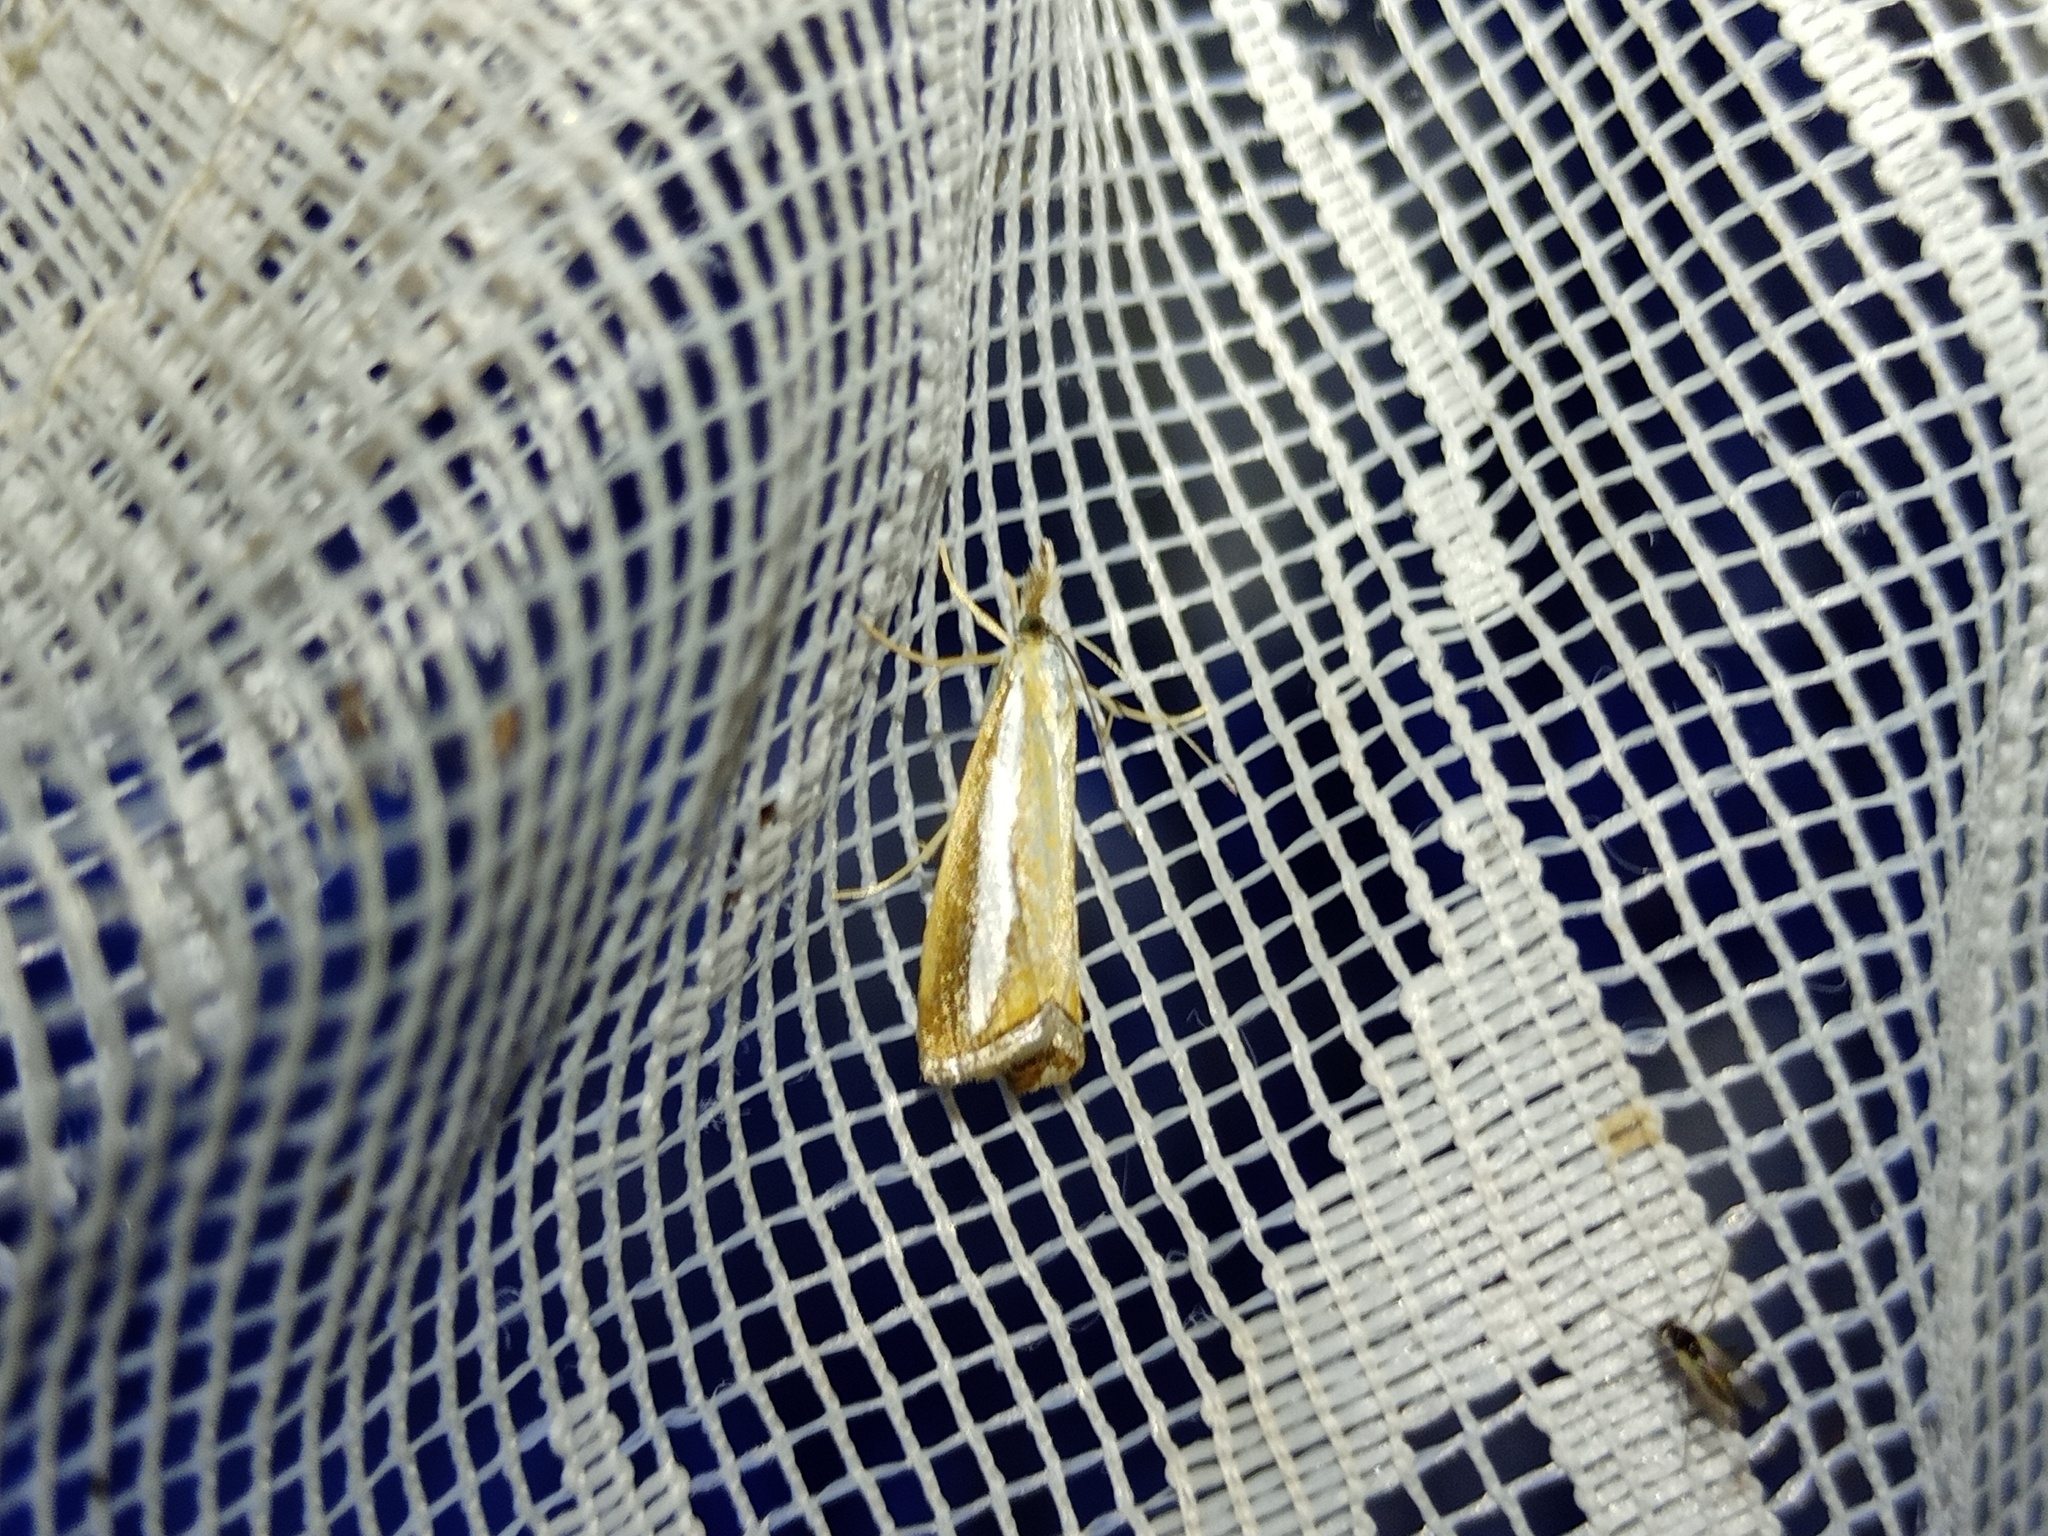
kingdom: Animalia
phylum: Arthropoda
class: Insecta
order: Lepidoptera
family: Crambidae
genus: Catoptria
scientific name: Catoptria margaritellus
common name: Pearl-band grass veneer
